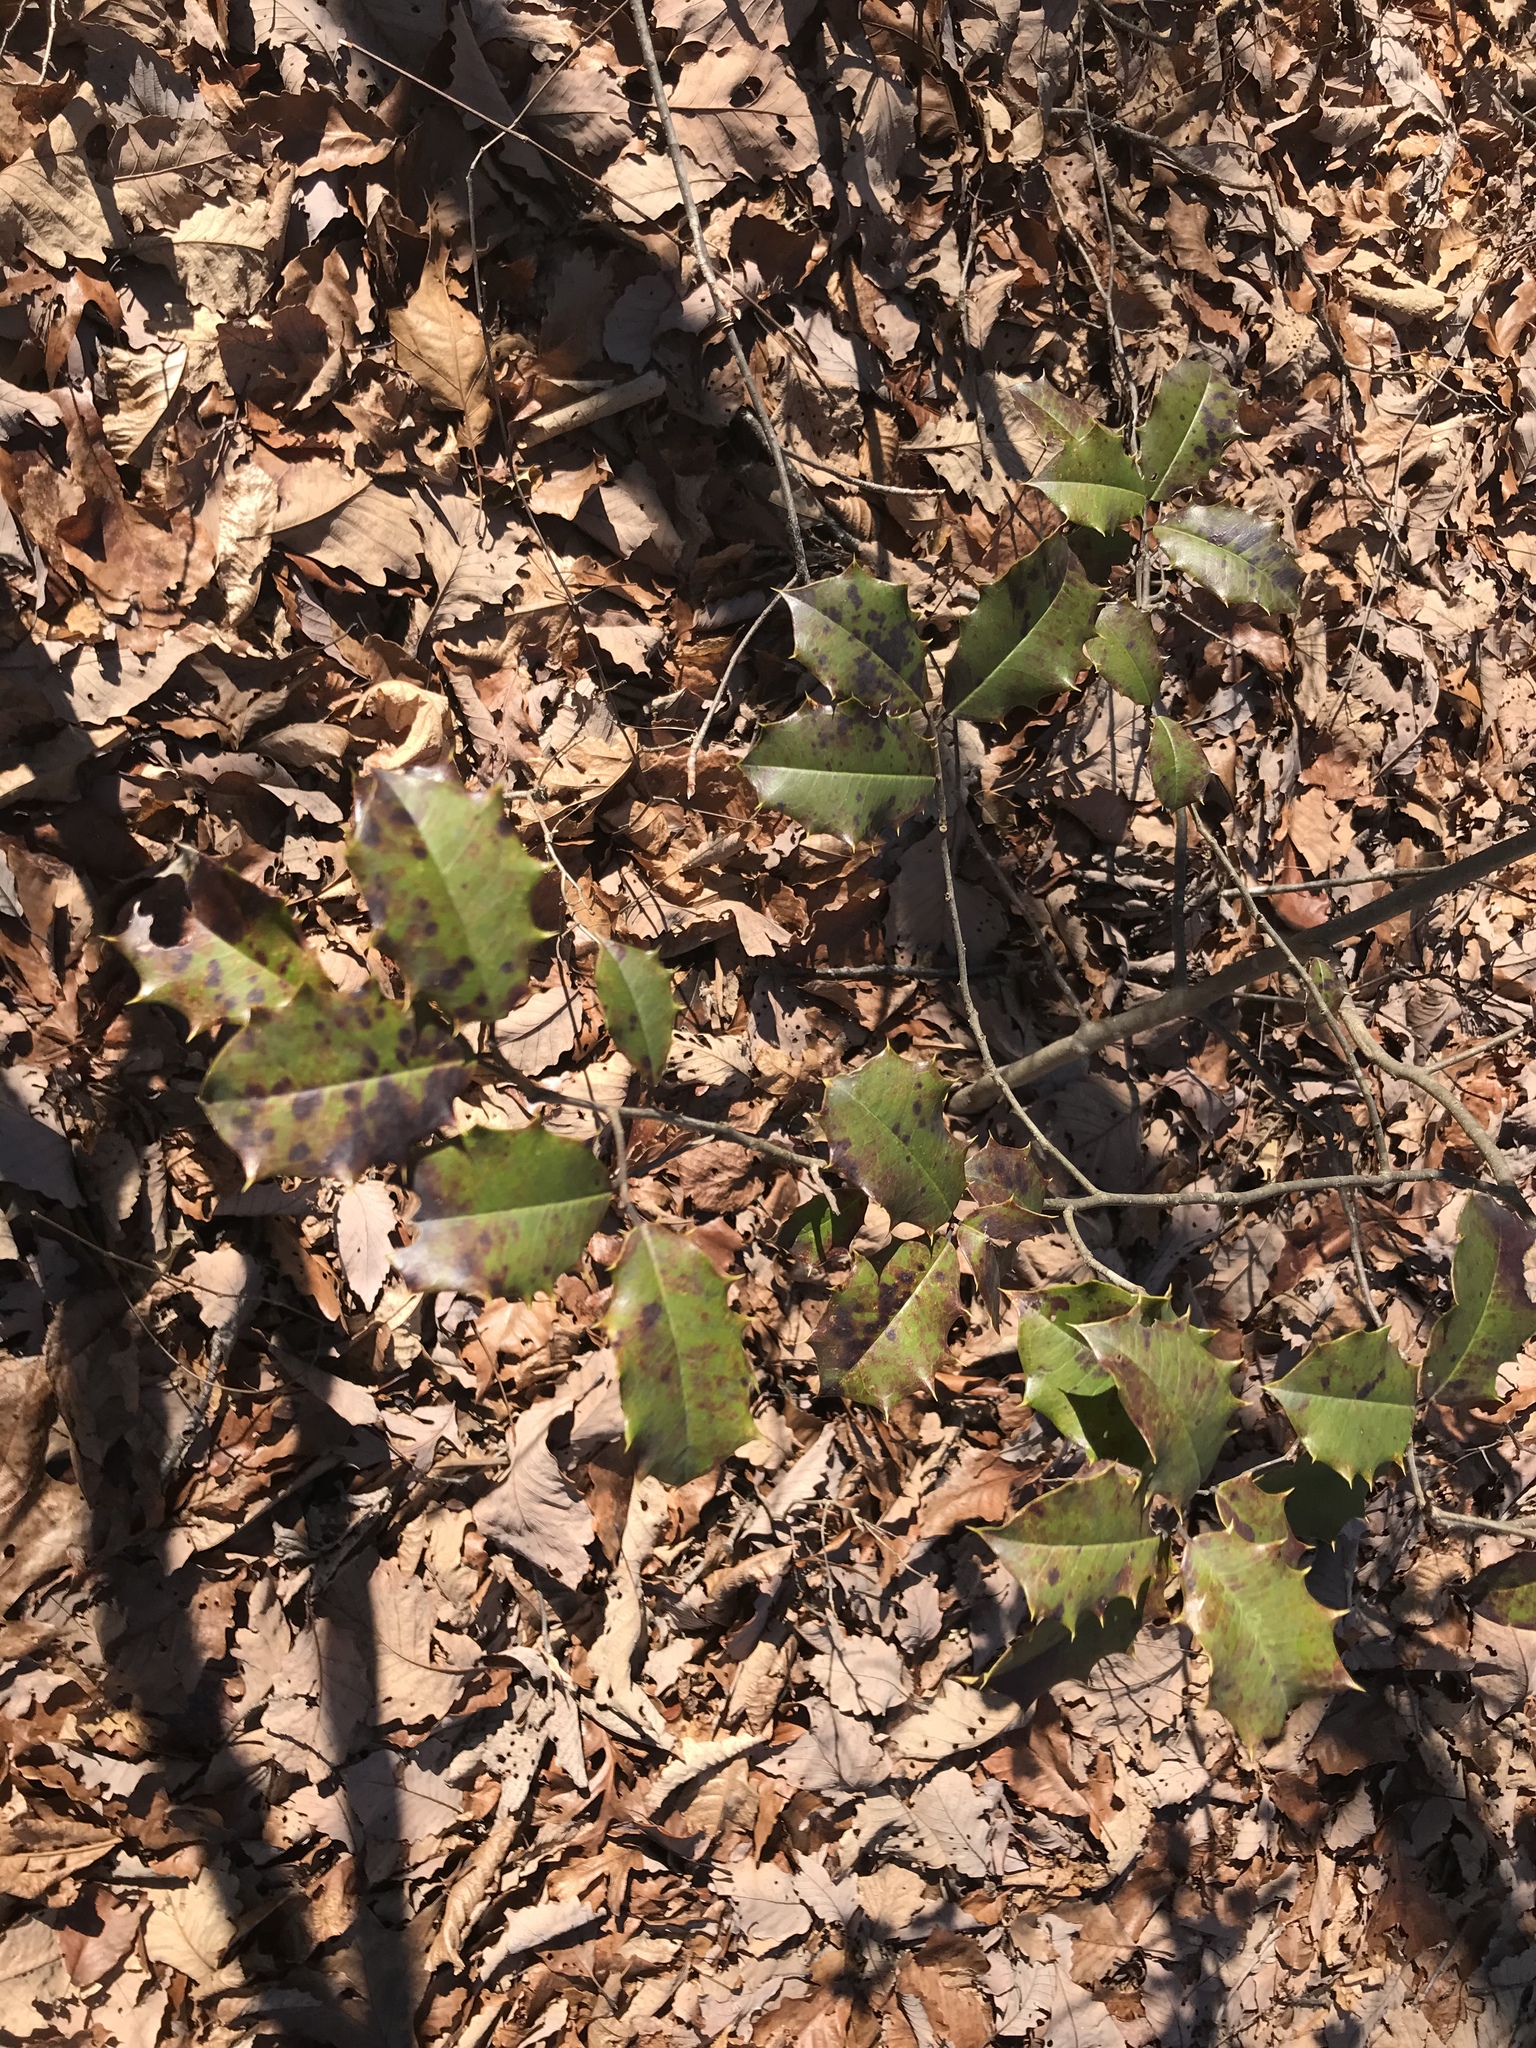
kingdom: Plantae
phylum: Tracheophyta
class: Magnoliopsida
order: Aquifoliales
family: Aquifoliaceae
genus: Ilex
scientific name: Ilex opaca
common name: American holly
